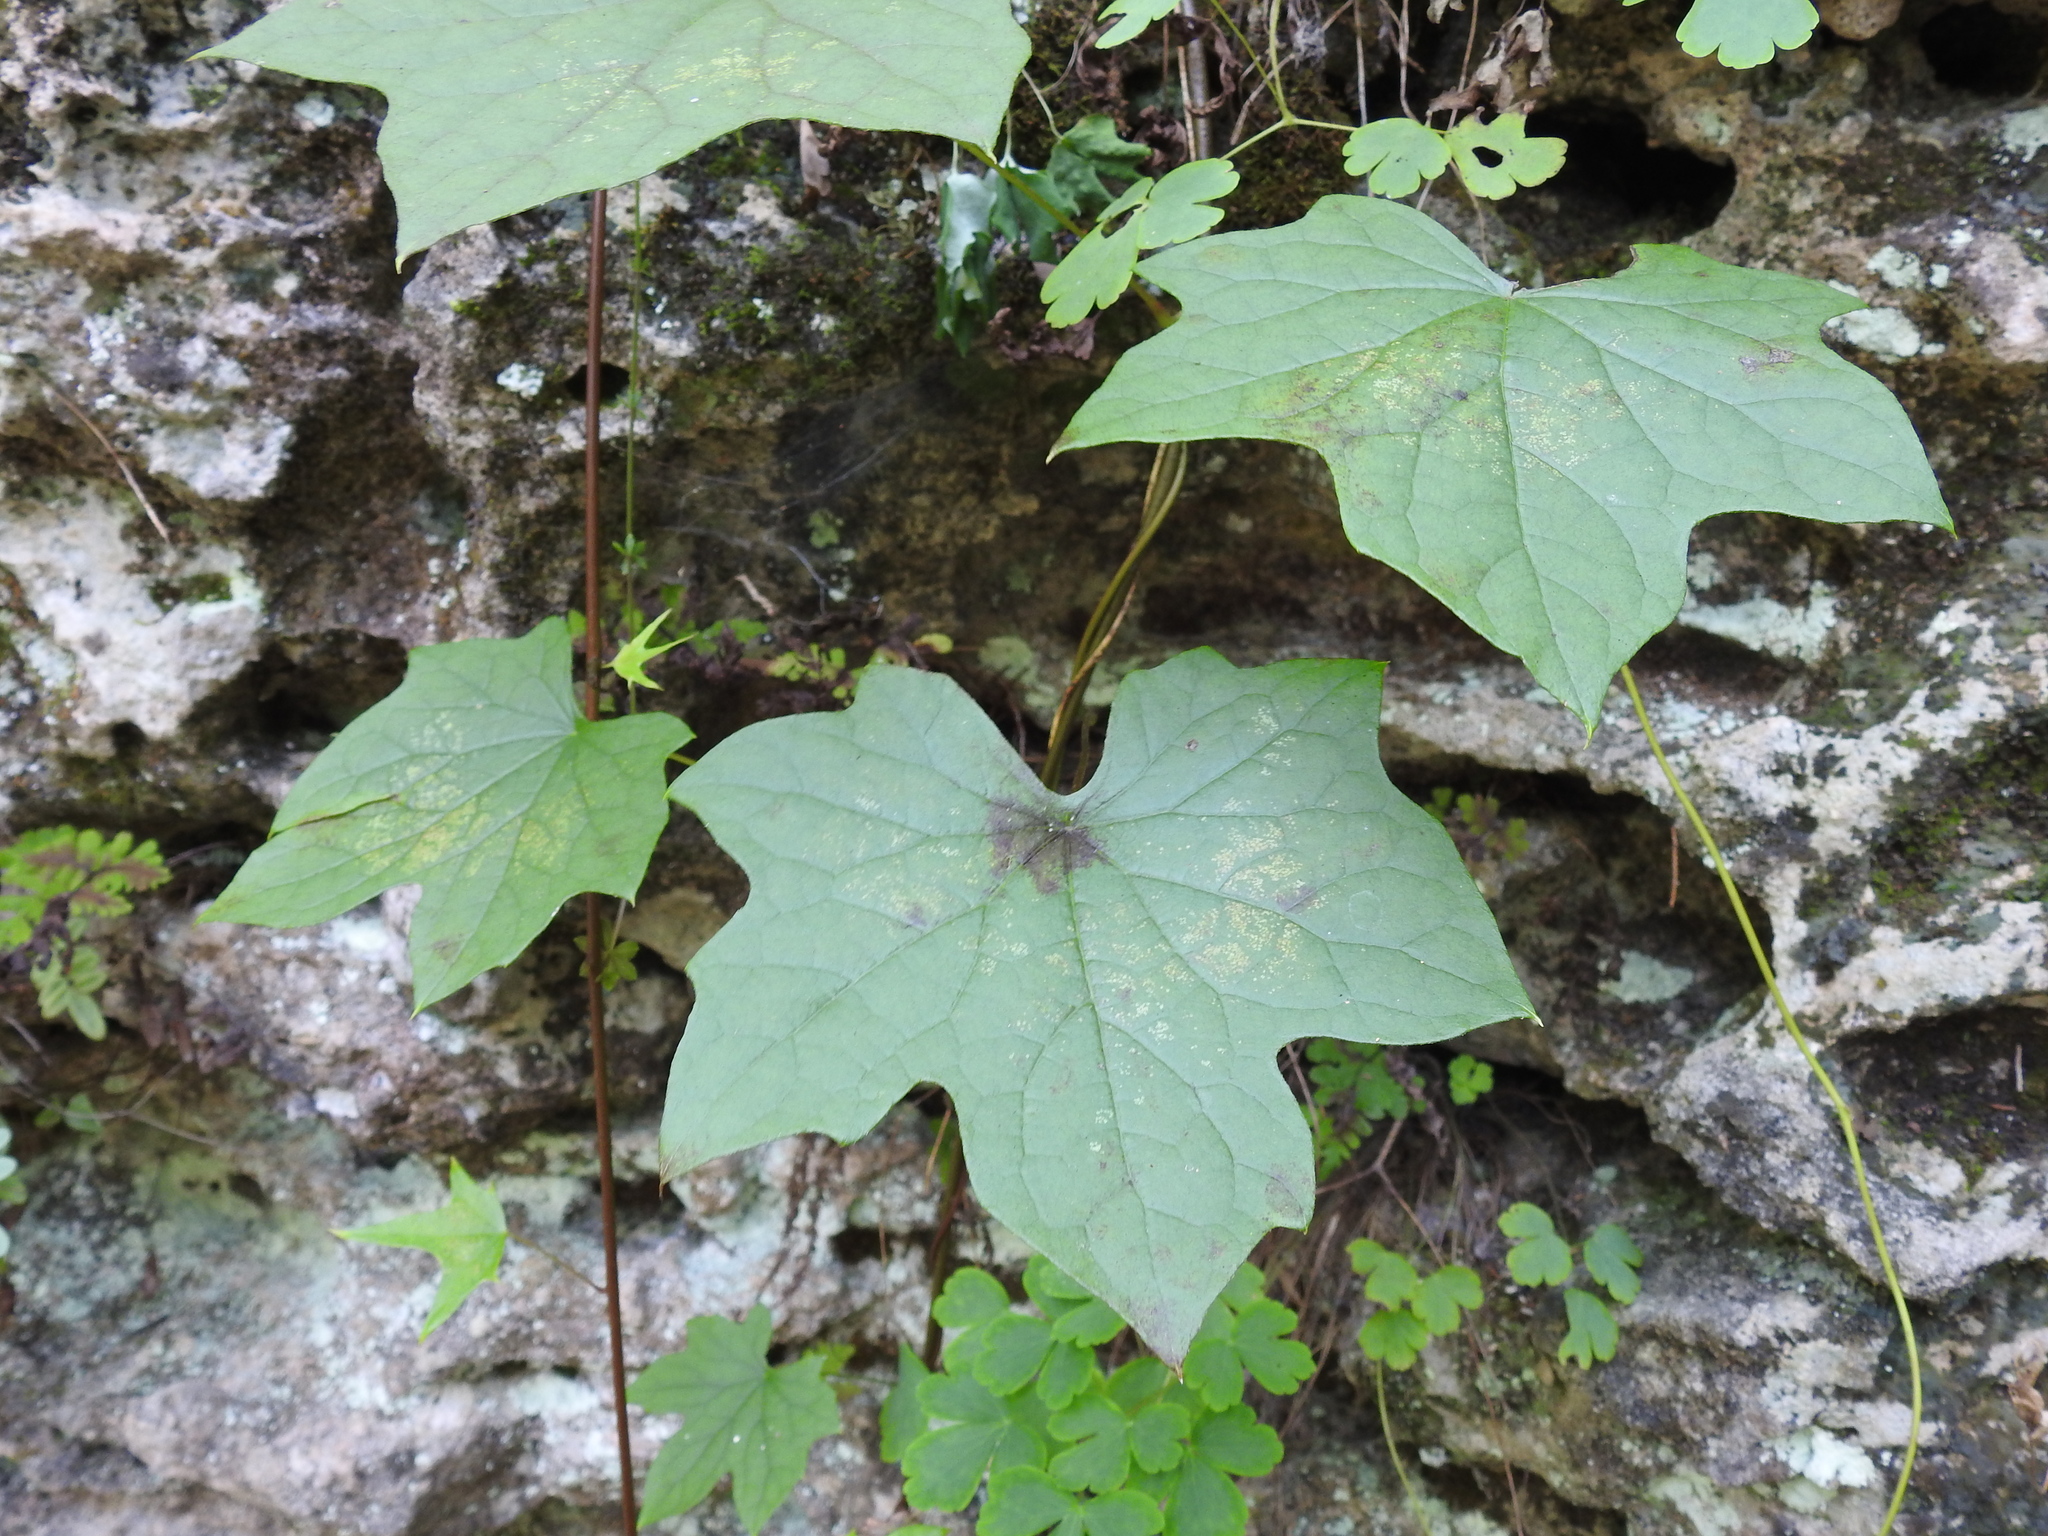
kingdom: Plantae
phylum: Tracheophyta
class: Magnoliopsida
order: Ranunculales
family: Menispermaceae
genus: Menispermum
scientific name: Menispermum canadense
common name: Moonseed
